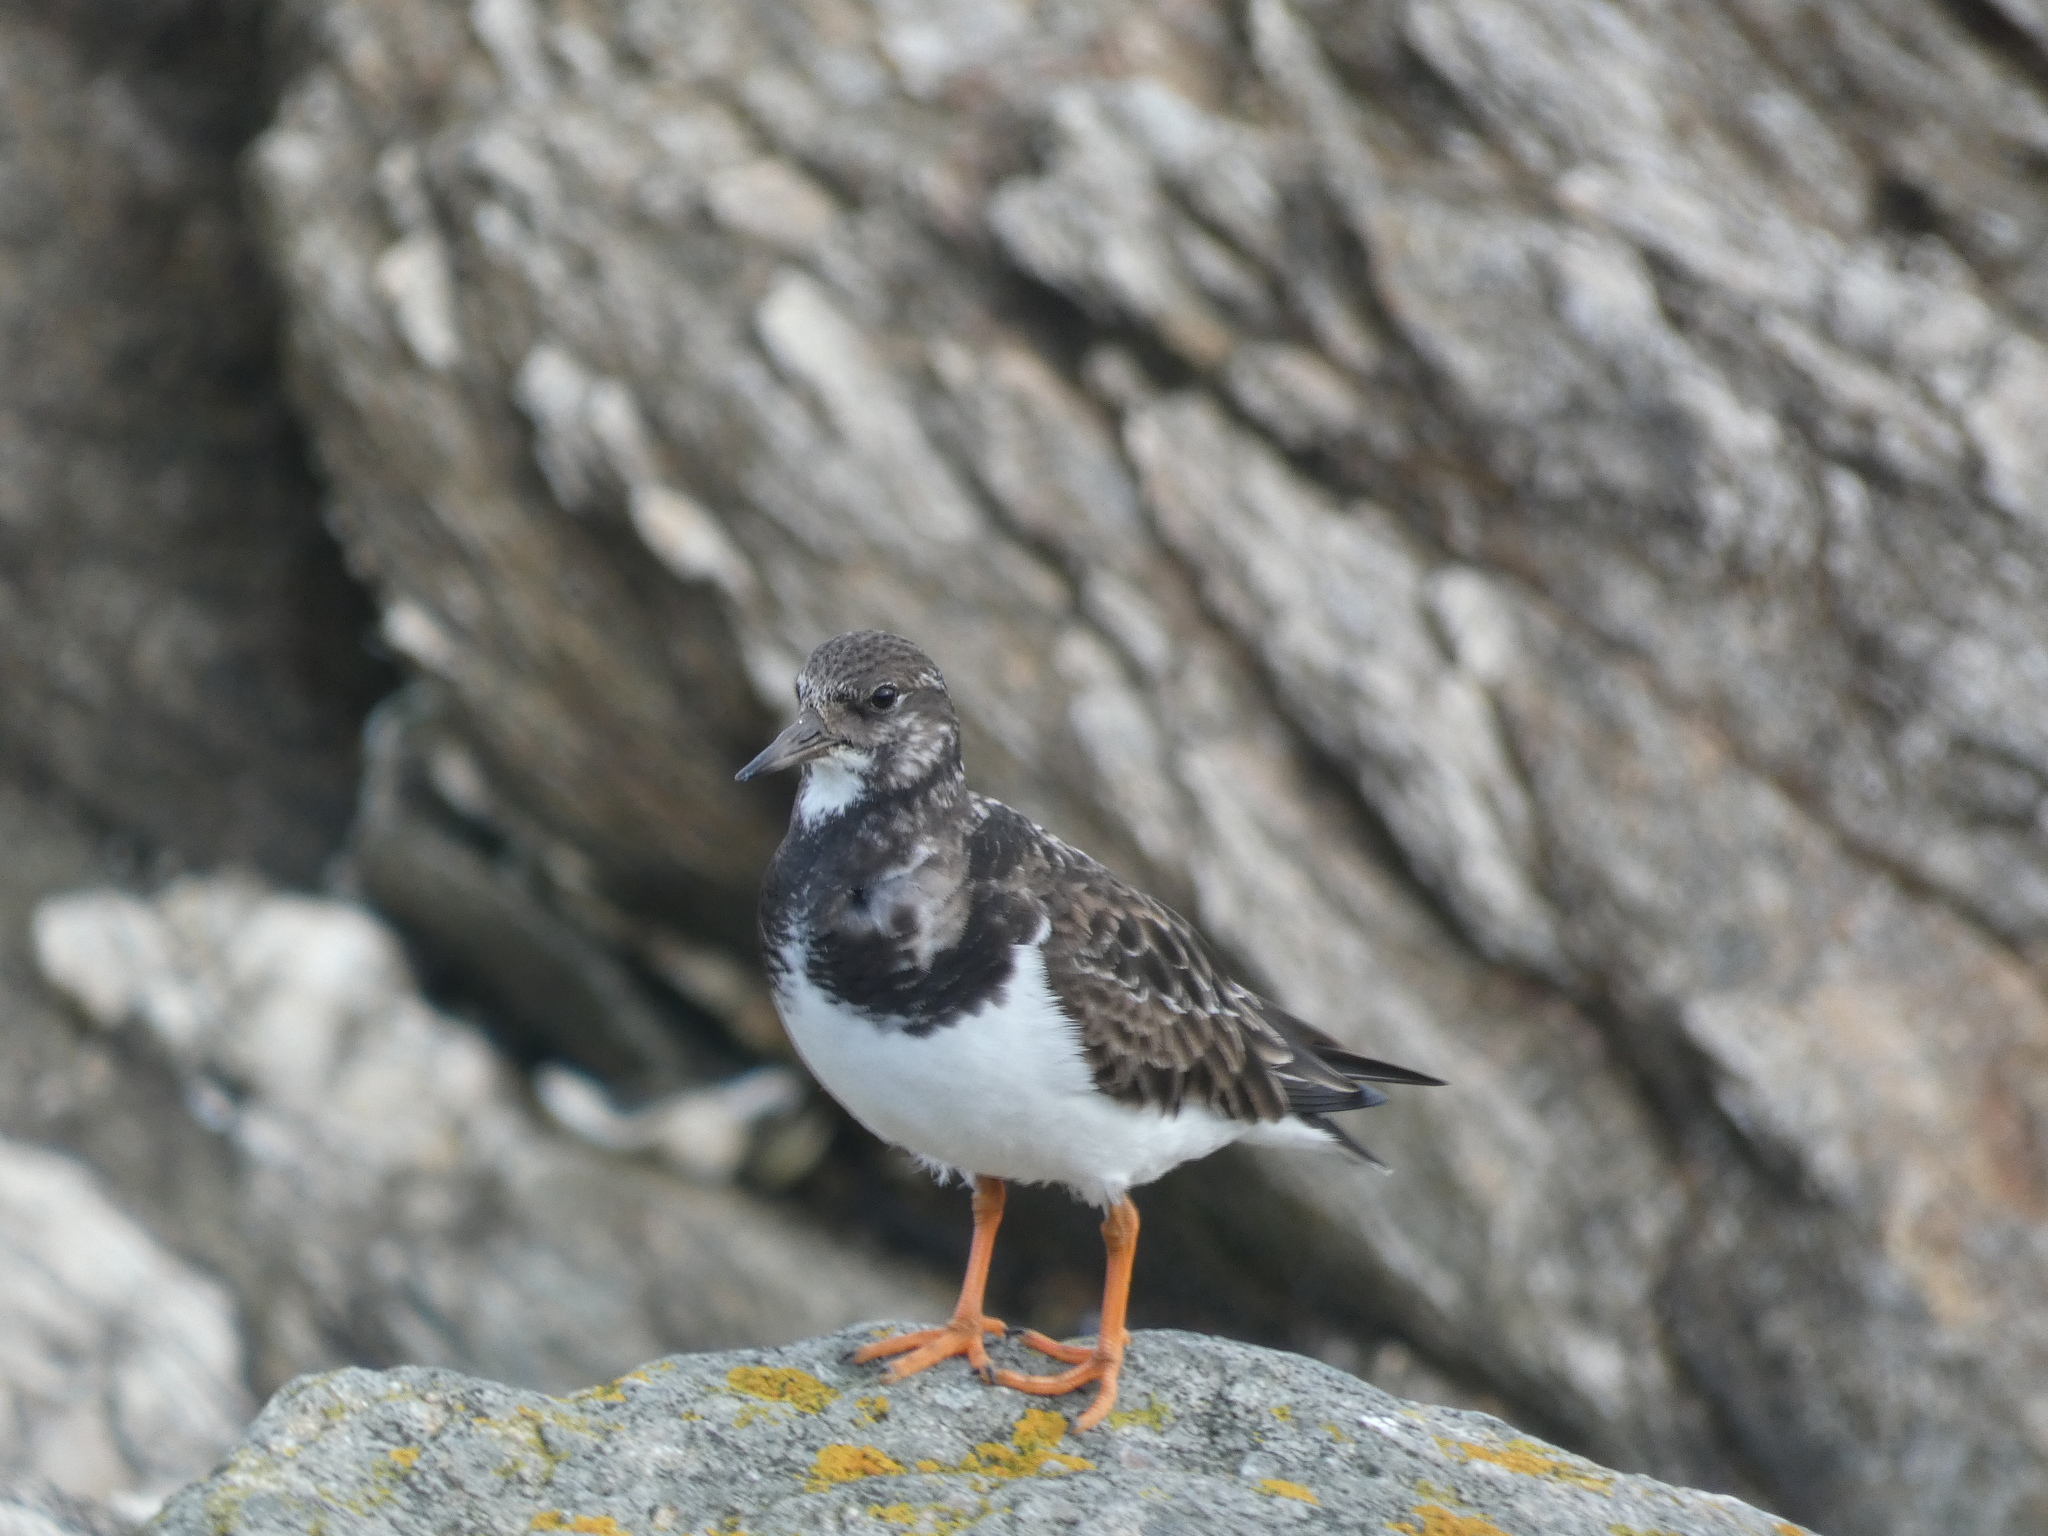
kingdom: Animalia
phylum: Chordata
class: Aves
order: Charadriiformes
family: Scolopacidae
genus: Arenaria
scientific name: Arenaria interpres
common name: Ruddy turnstone
